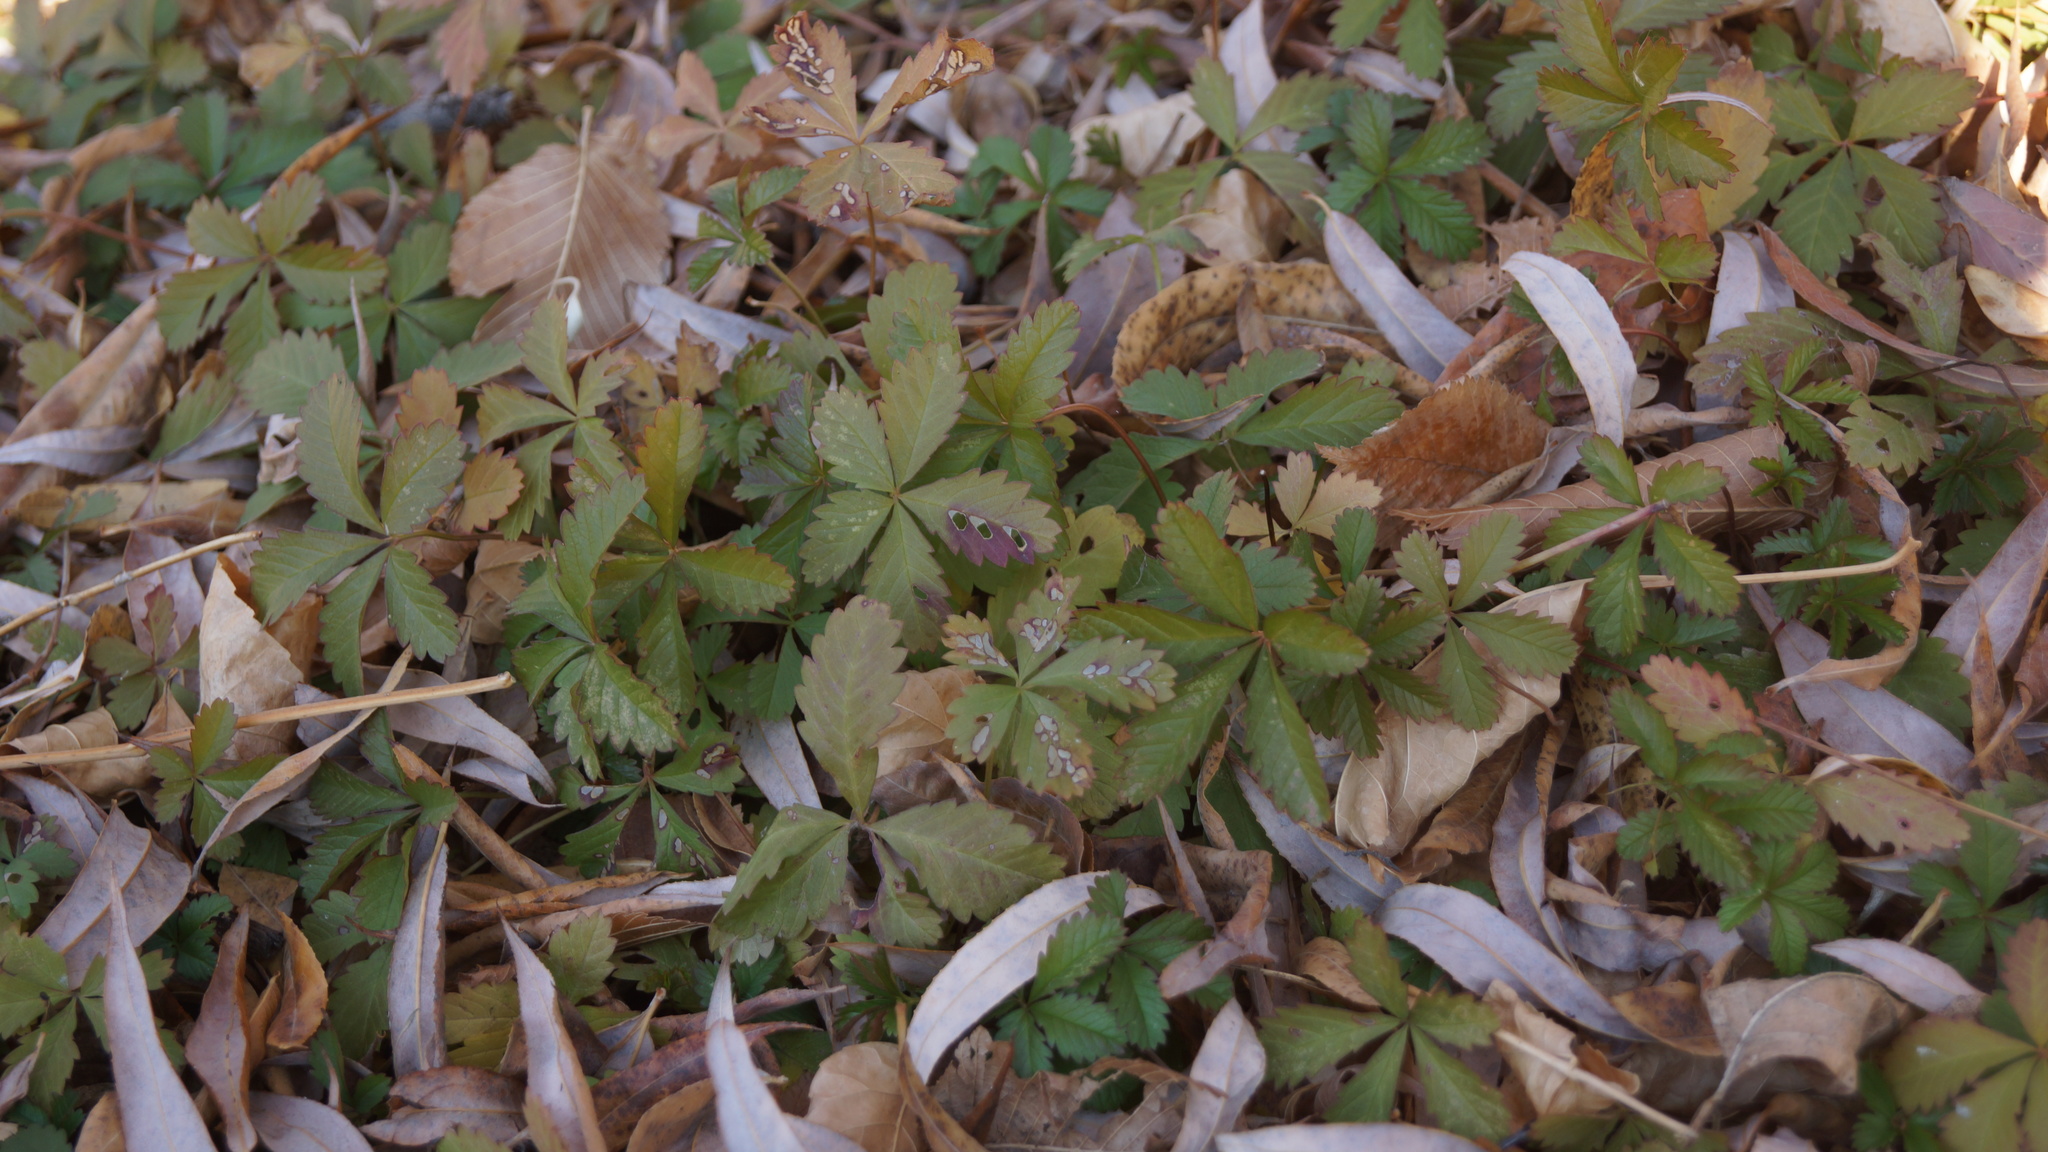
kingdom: Plantae
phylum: Tracheophyta
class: Magnoliopsida
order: Rosales
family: Rosaceae
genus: Potentilla
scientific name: Potentilla reptans
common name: Creeping cinquefoil
